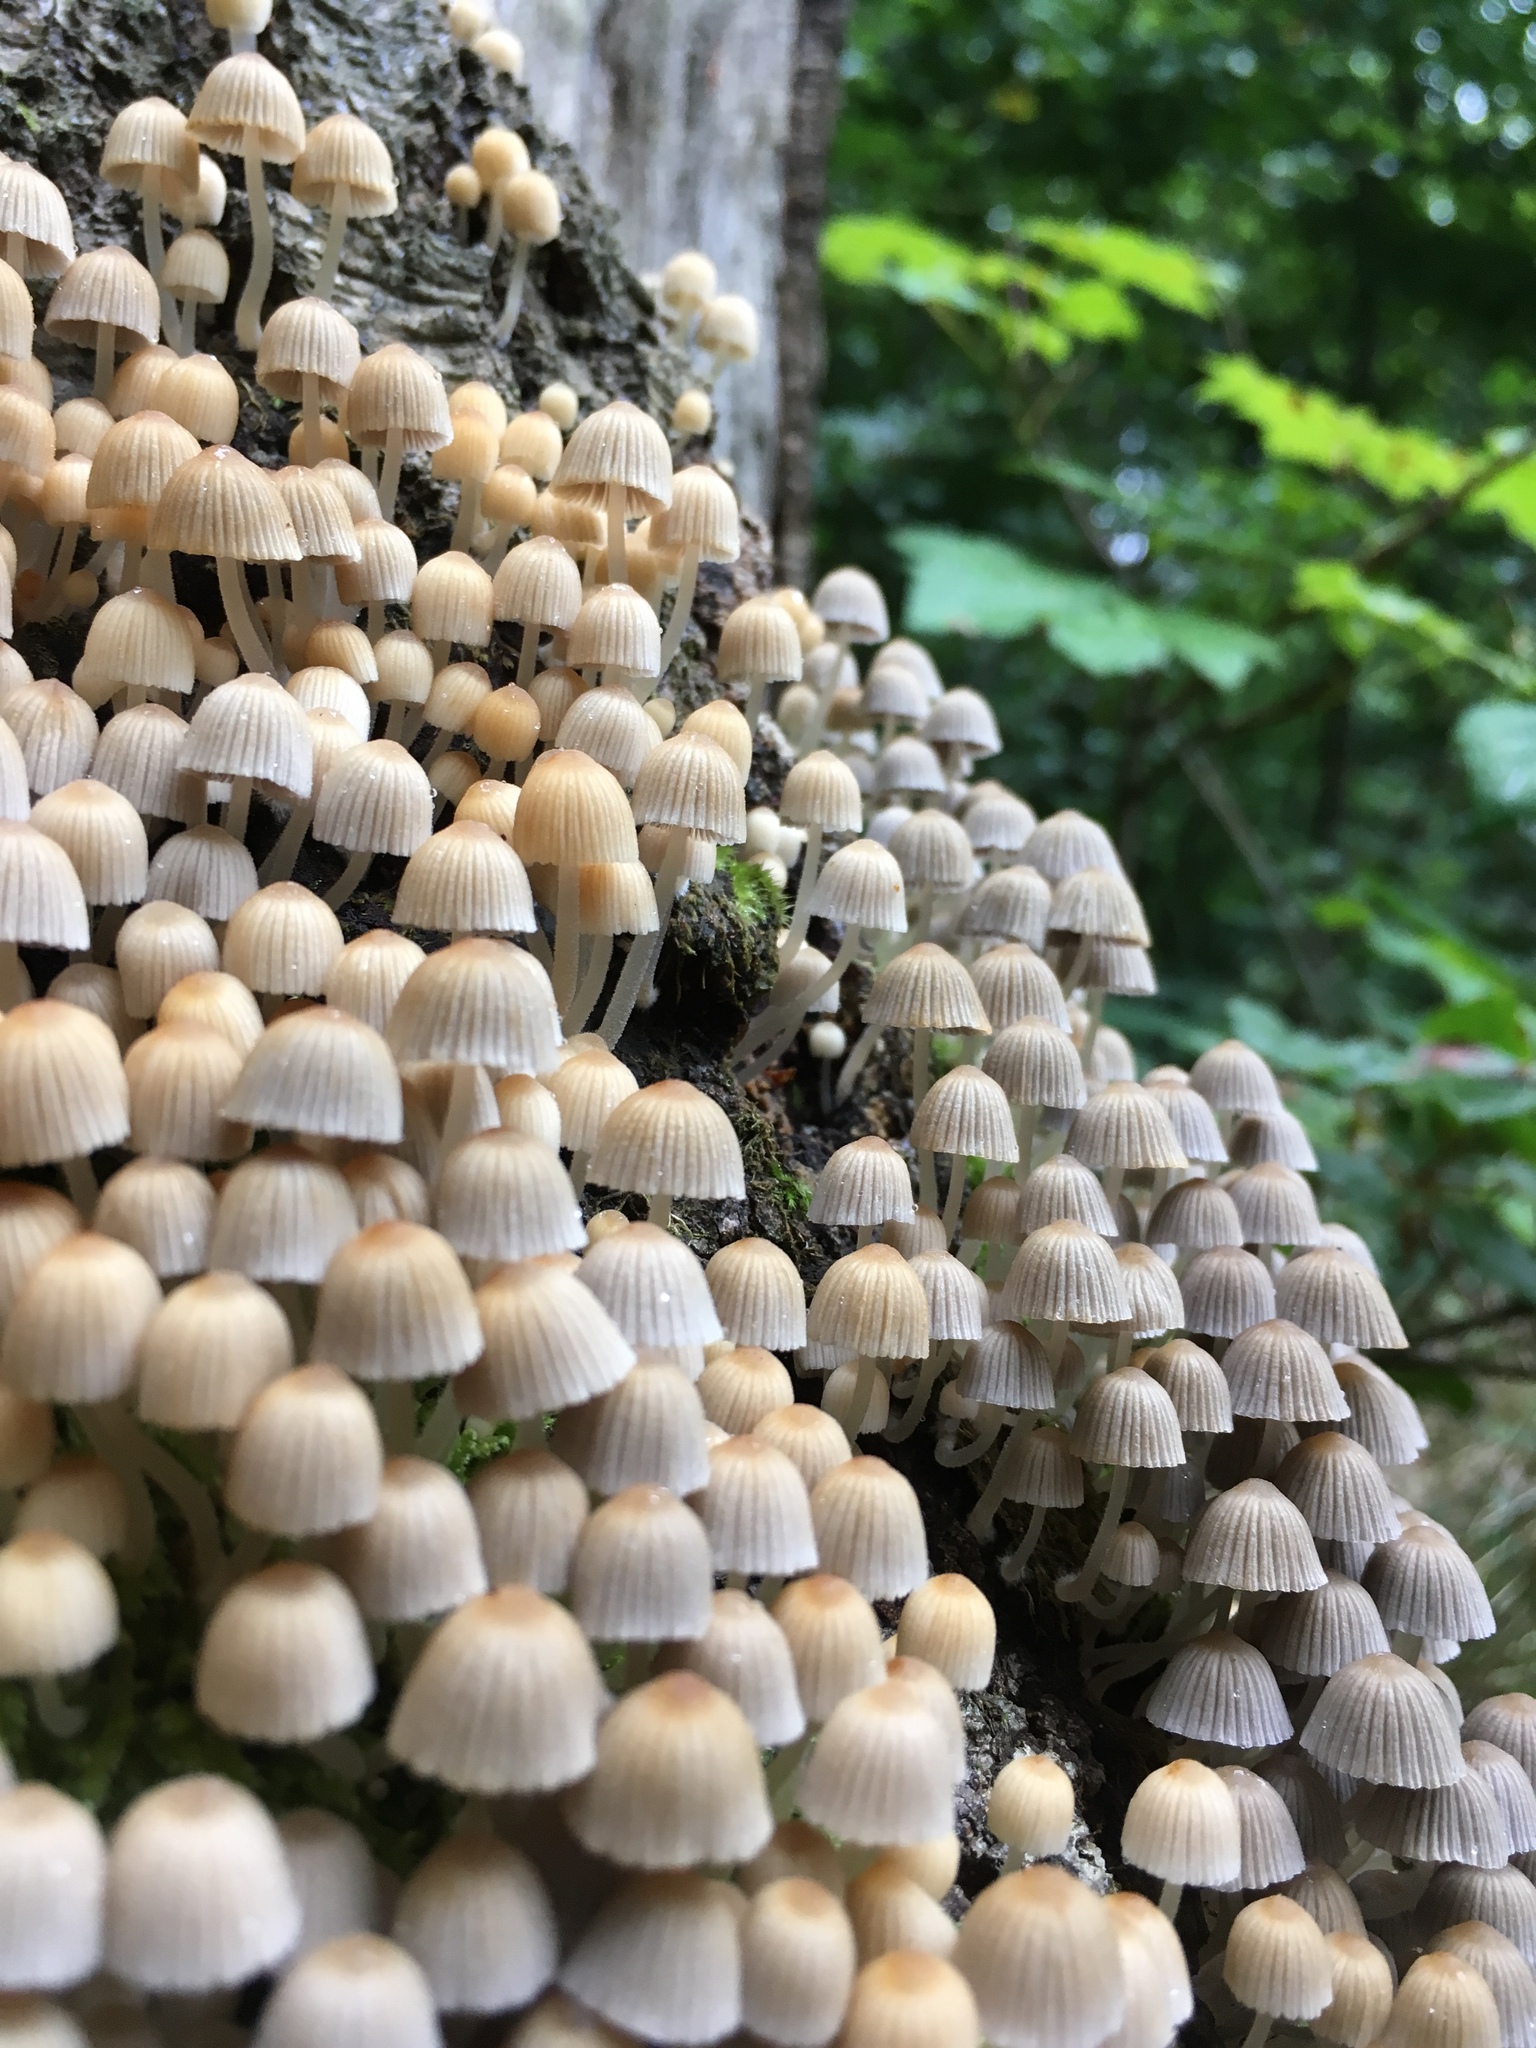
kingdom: Fungi
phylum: Basidiomycota
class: Agaricomycetes
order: Agaricales
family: Psathyrellaceae
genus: Coprinellus
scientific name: Coprinellus disseminatus
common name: Fairies' bonnets
